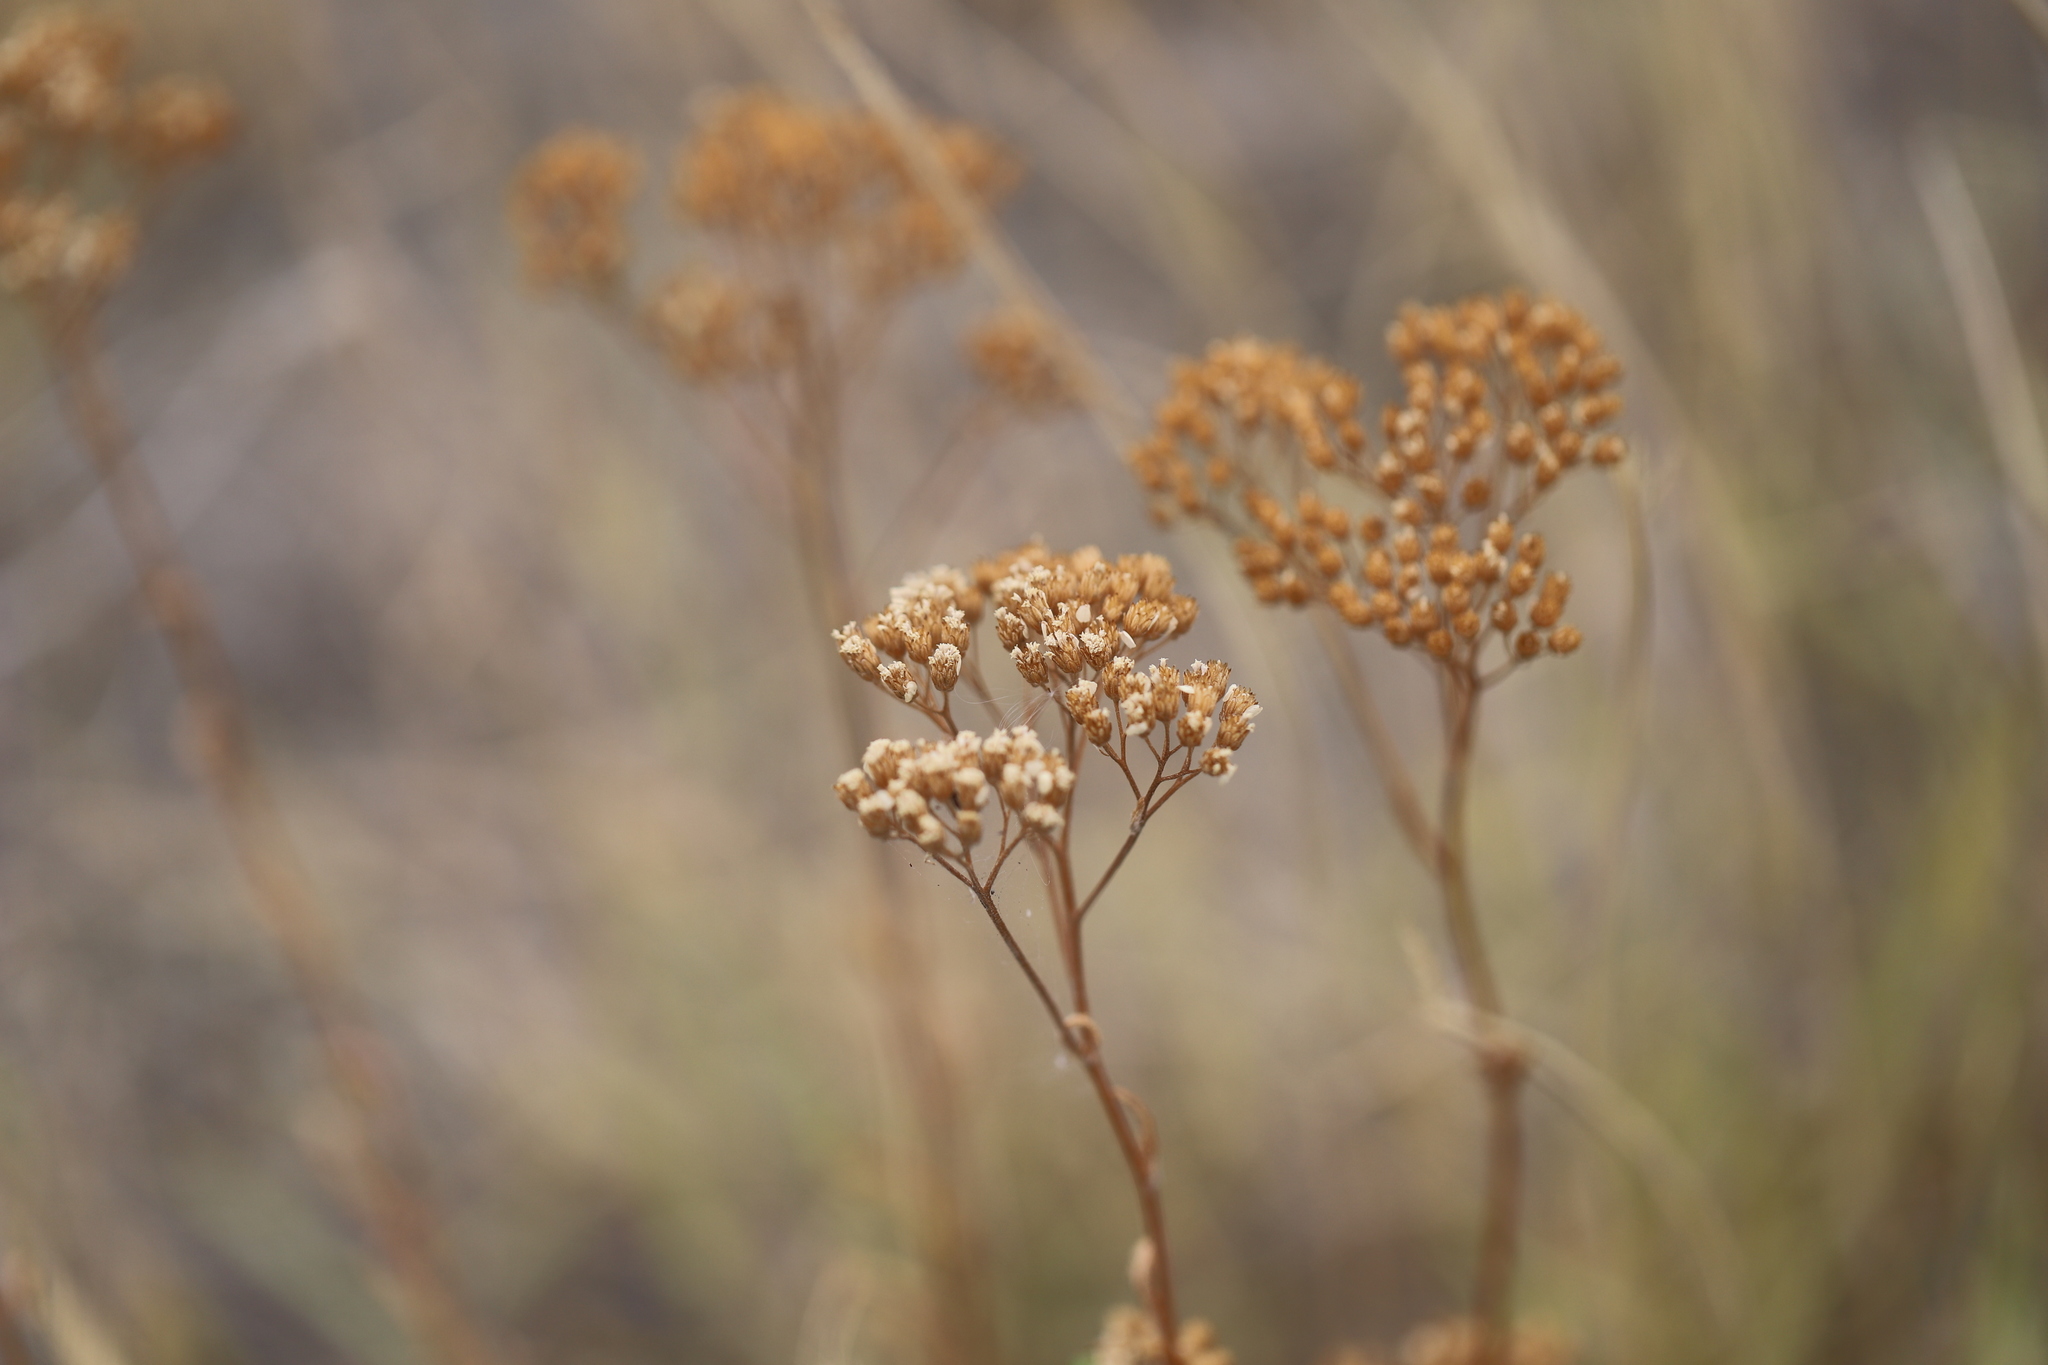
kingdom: Plantae
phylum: Tracheophyta
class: Magnoliopsida
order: Asterales
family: Asteraceae
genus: Achillea
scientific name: Achillea millefolium
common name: Yarrow
